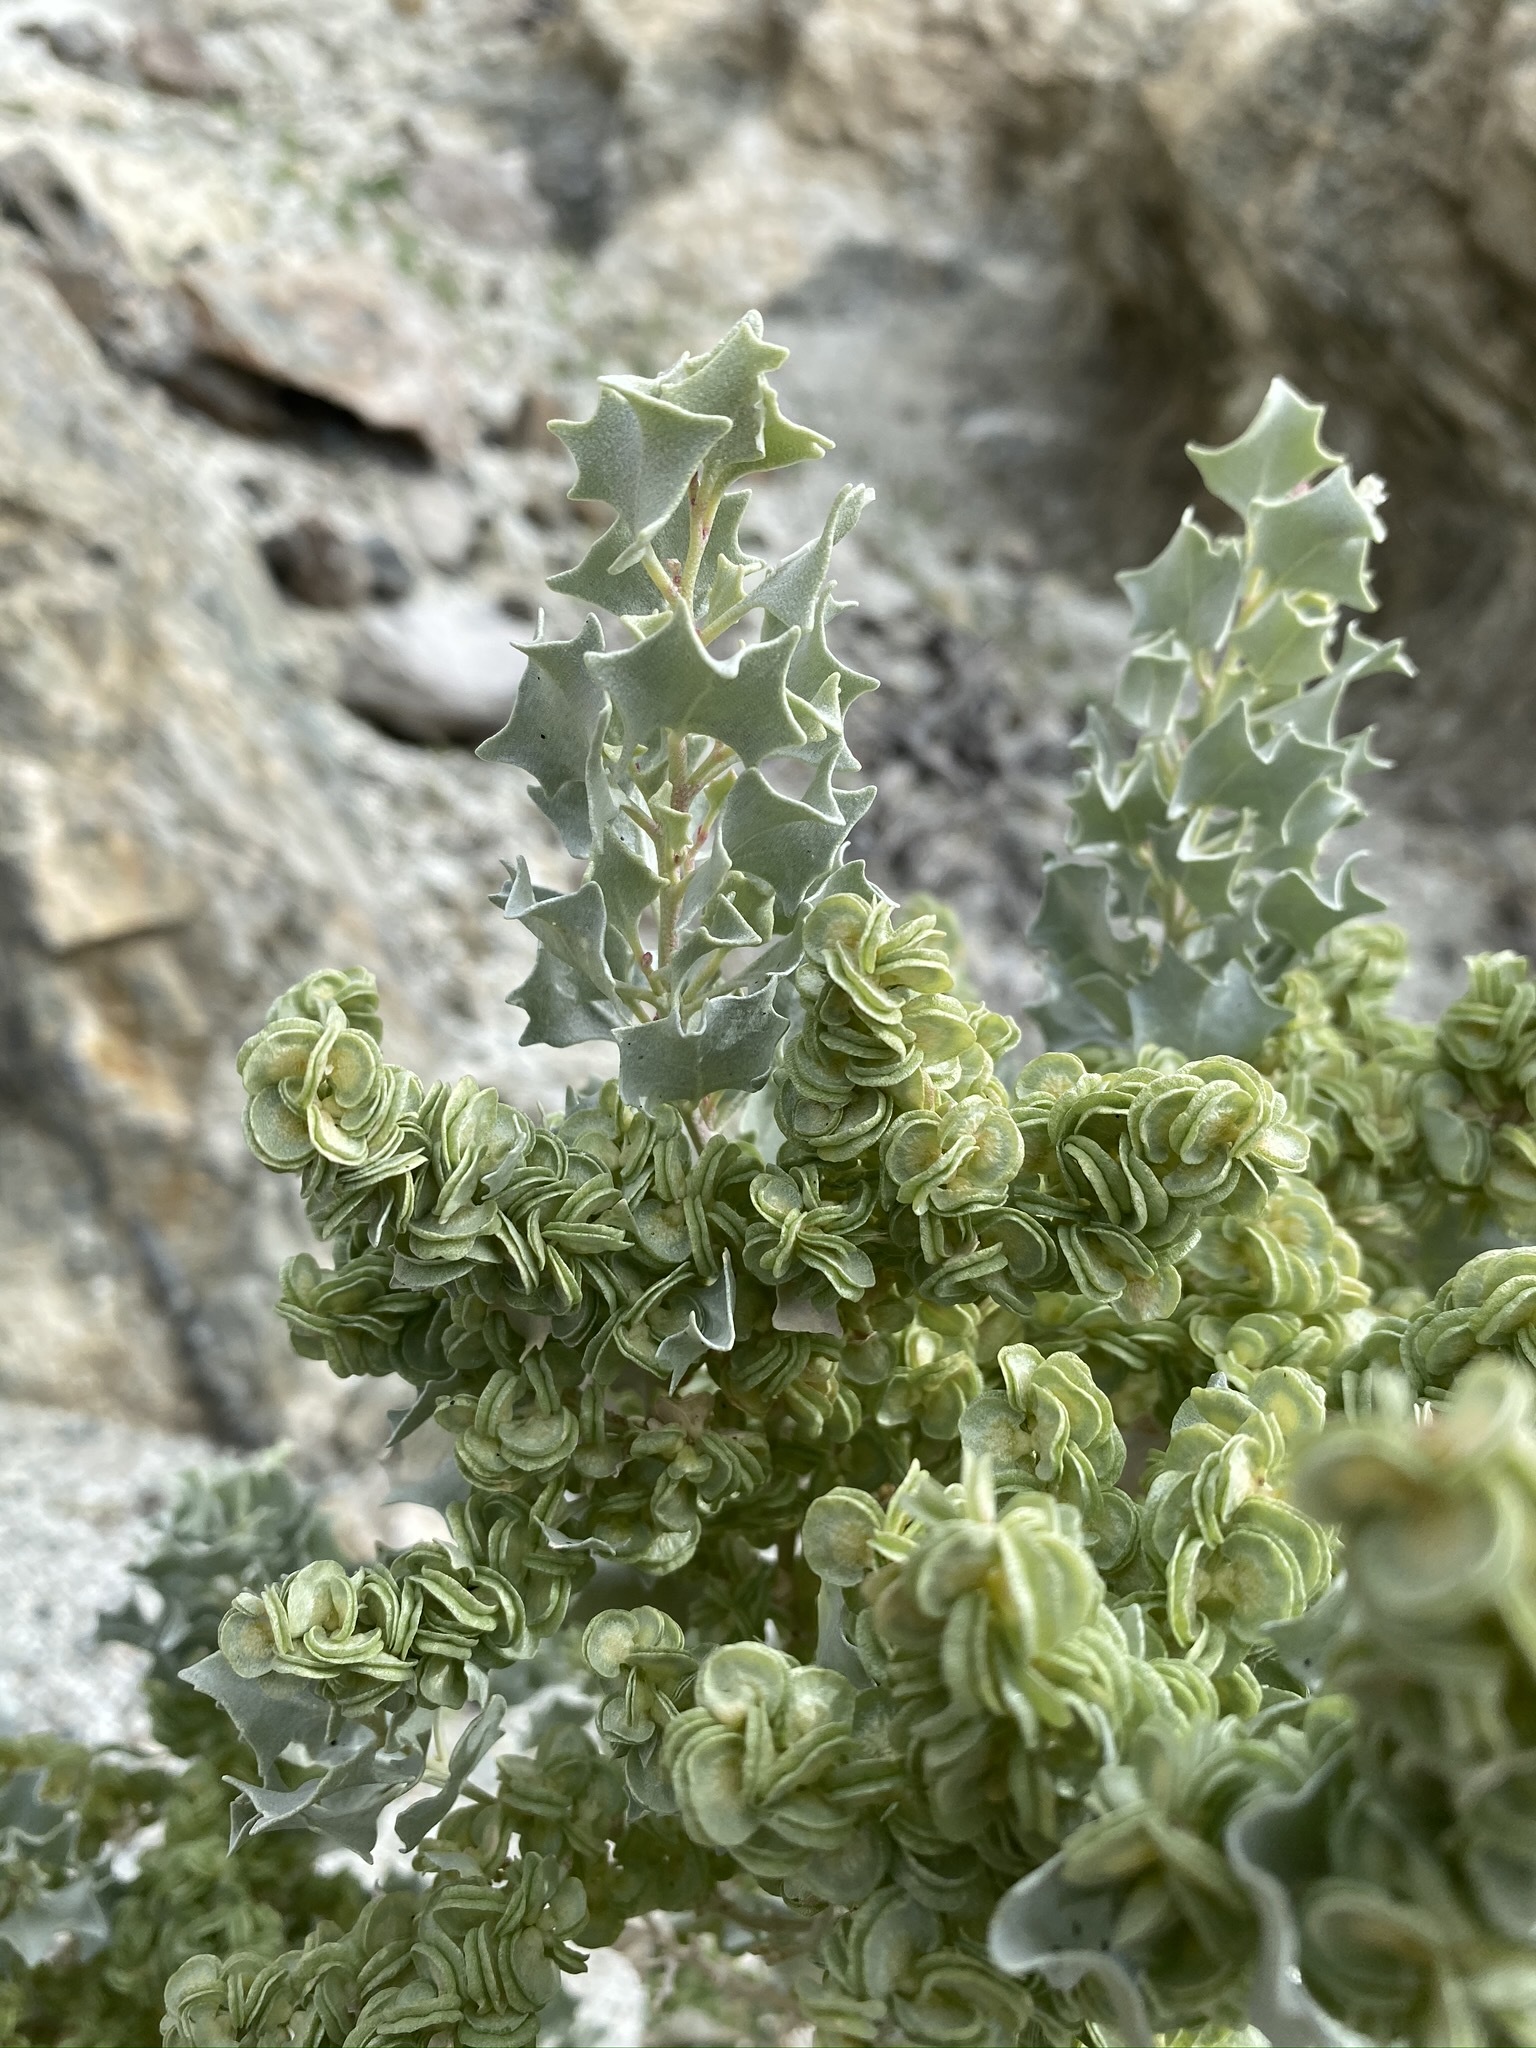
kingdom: Plantae
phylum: Tracheophyta
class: Magnoliopsida
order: Caryophyllales
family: Amaranthaceae
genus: Atriplex
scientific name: Atriplex hymenelytra
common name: Desert-holly
